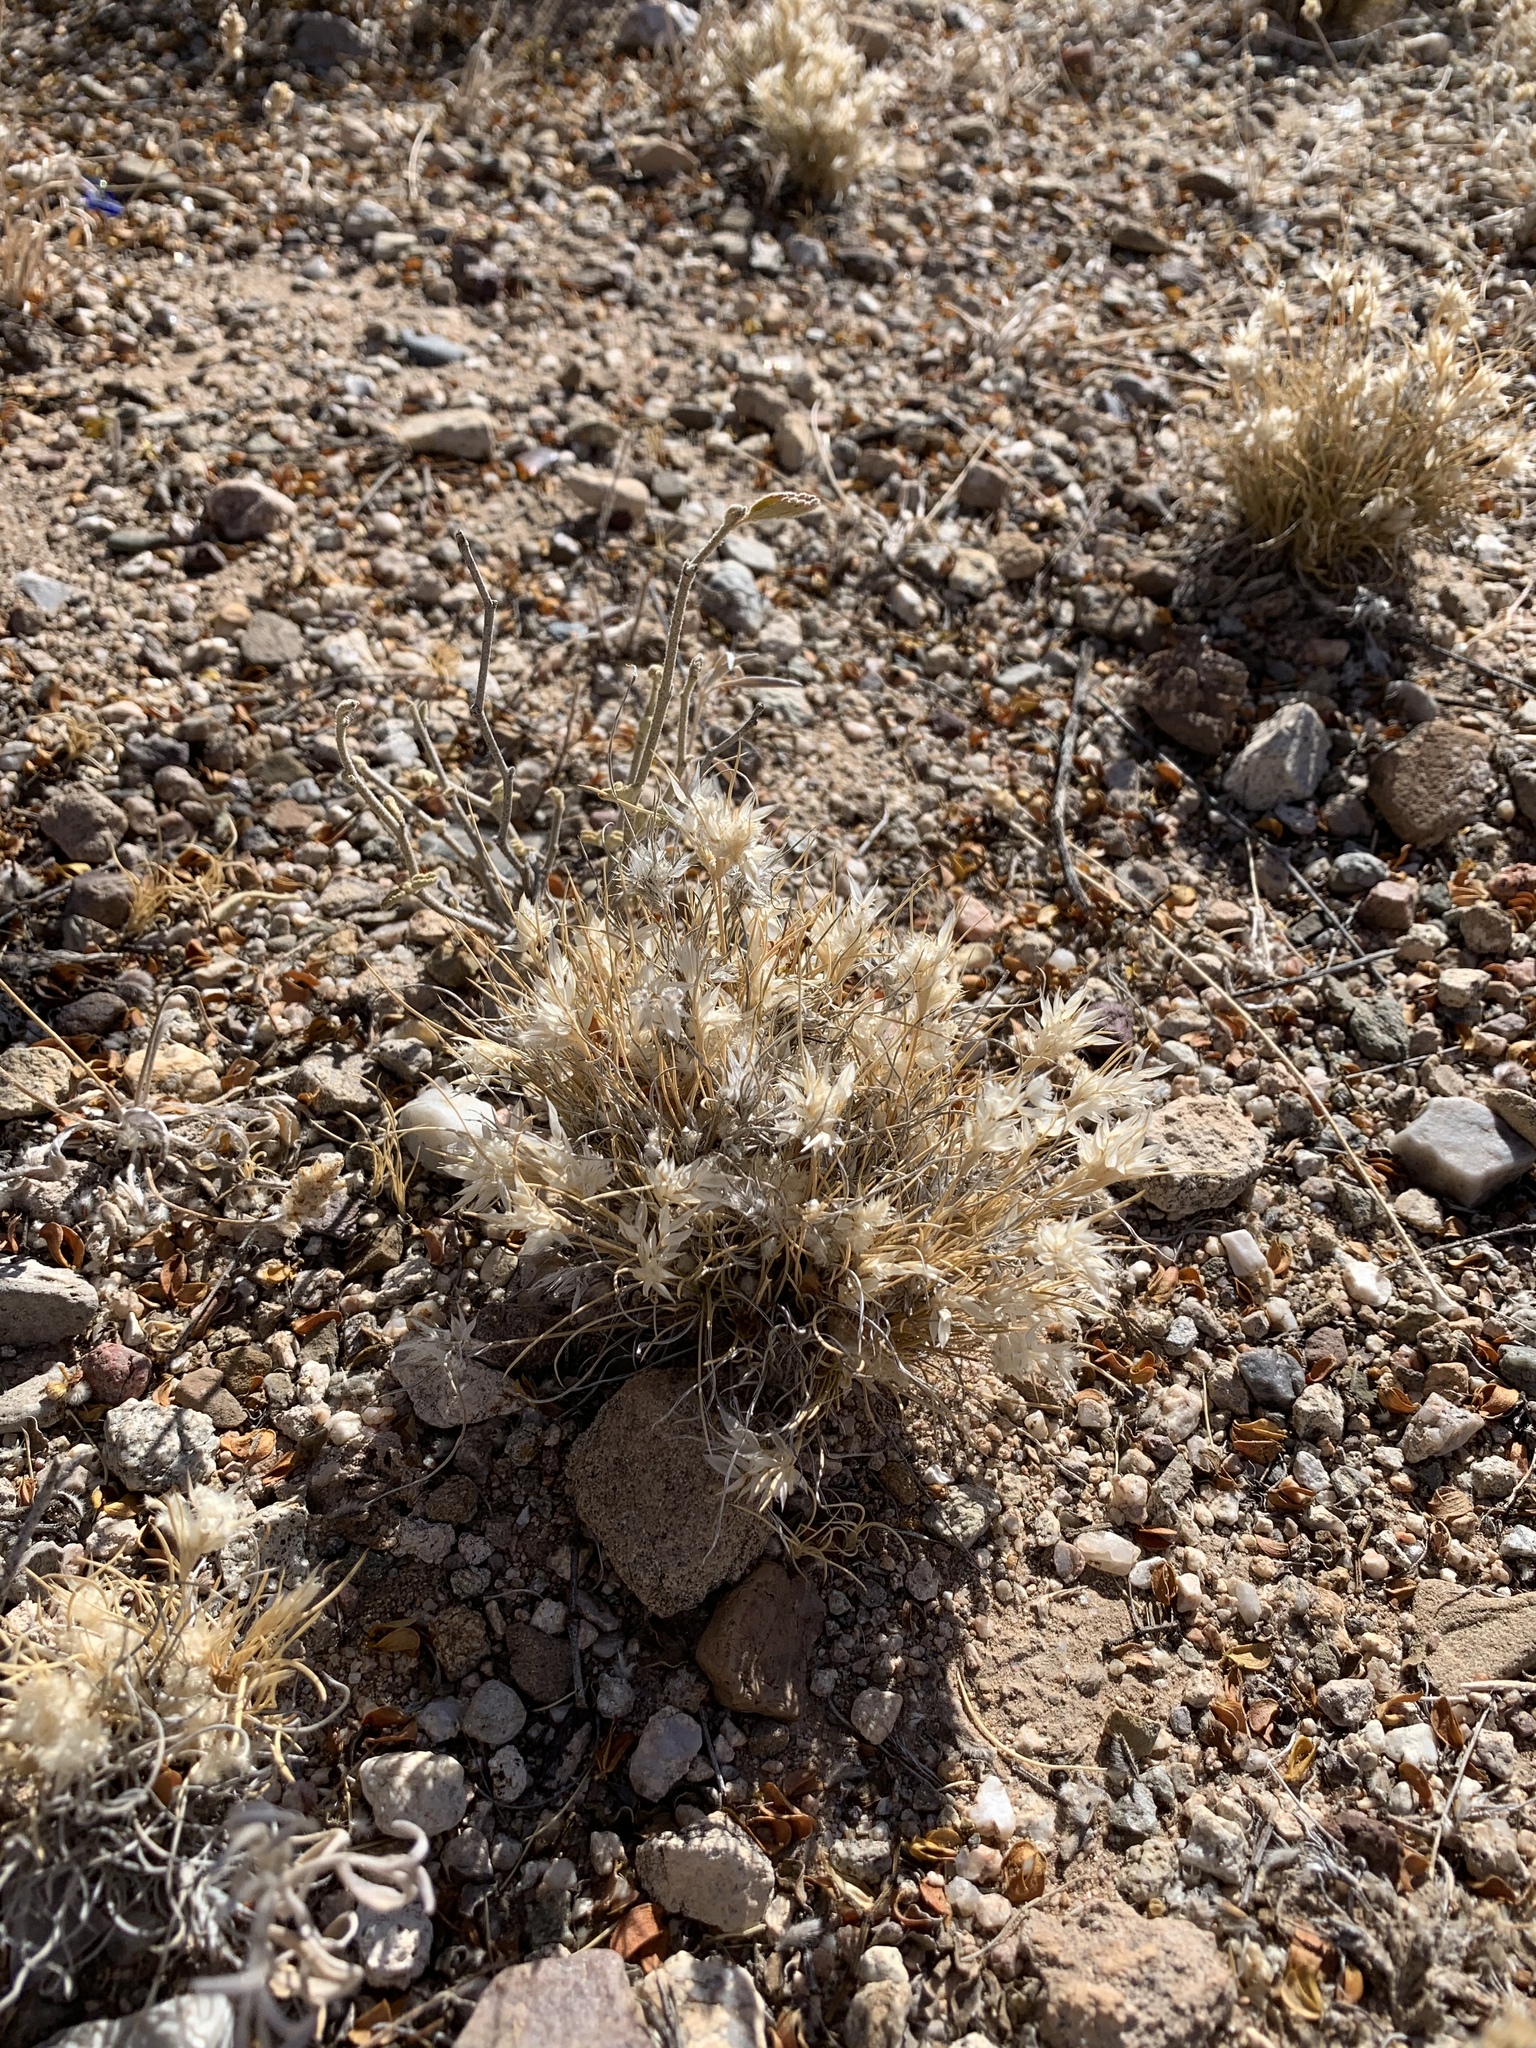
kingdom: Plantae
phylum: Tracheophyta
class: Liliopsida
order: Poales
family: Poaceae
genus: Dasyochloa
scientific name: Dasyochloa pulchella
